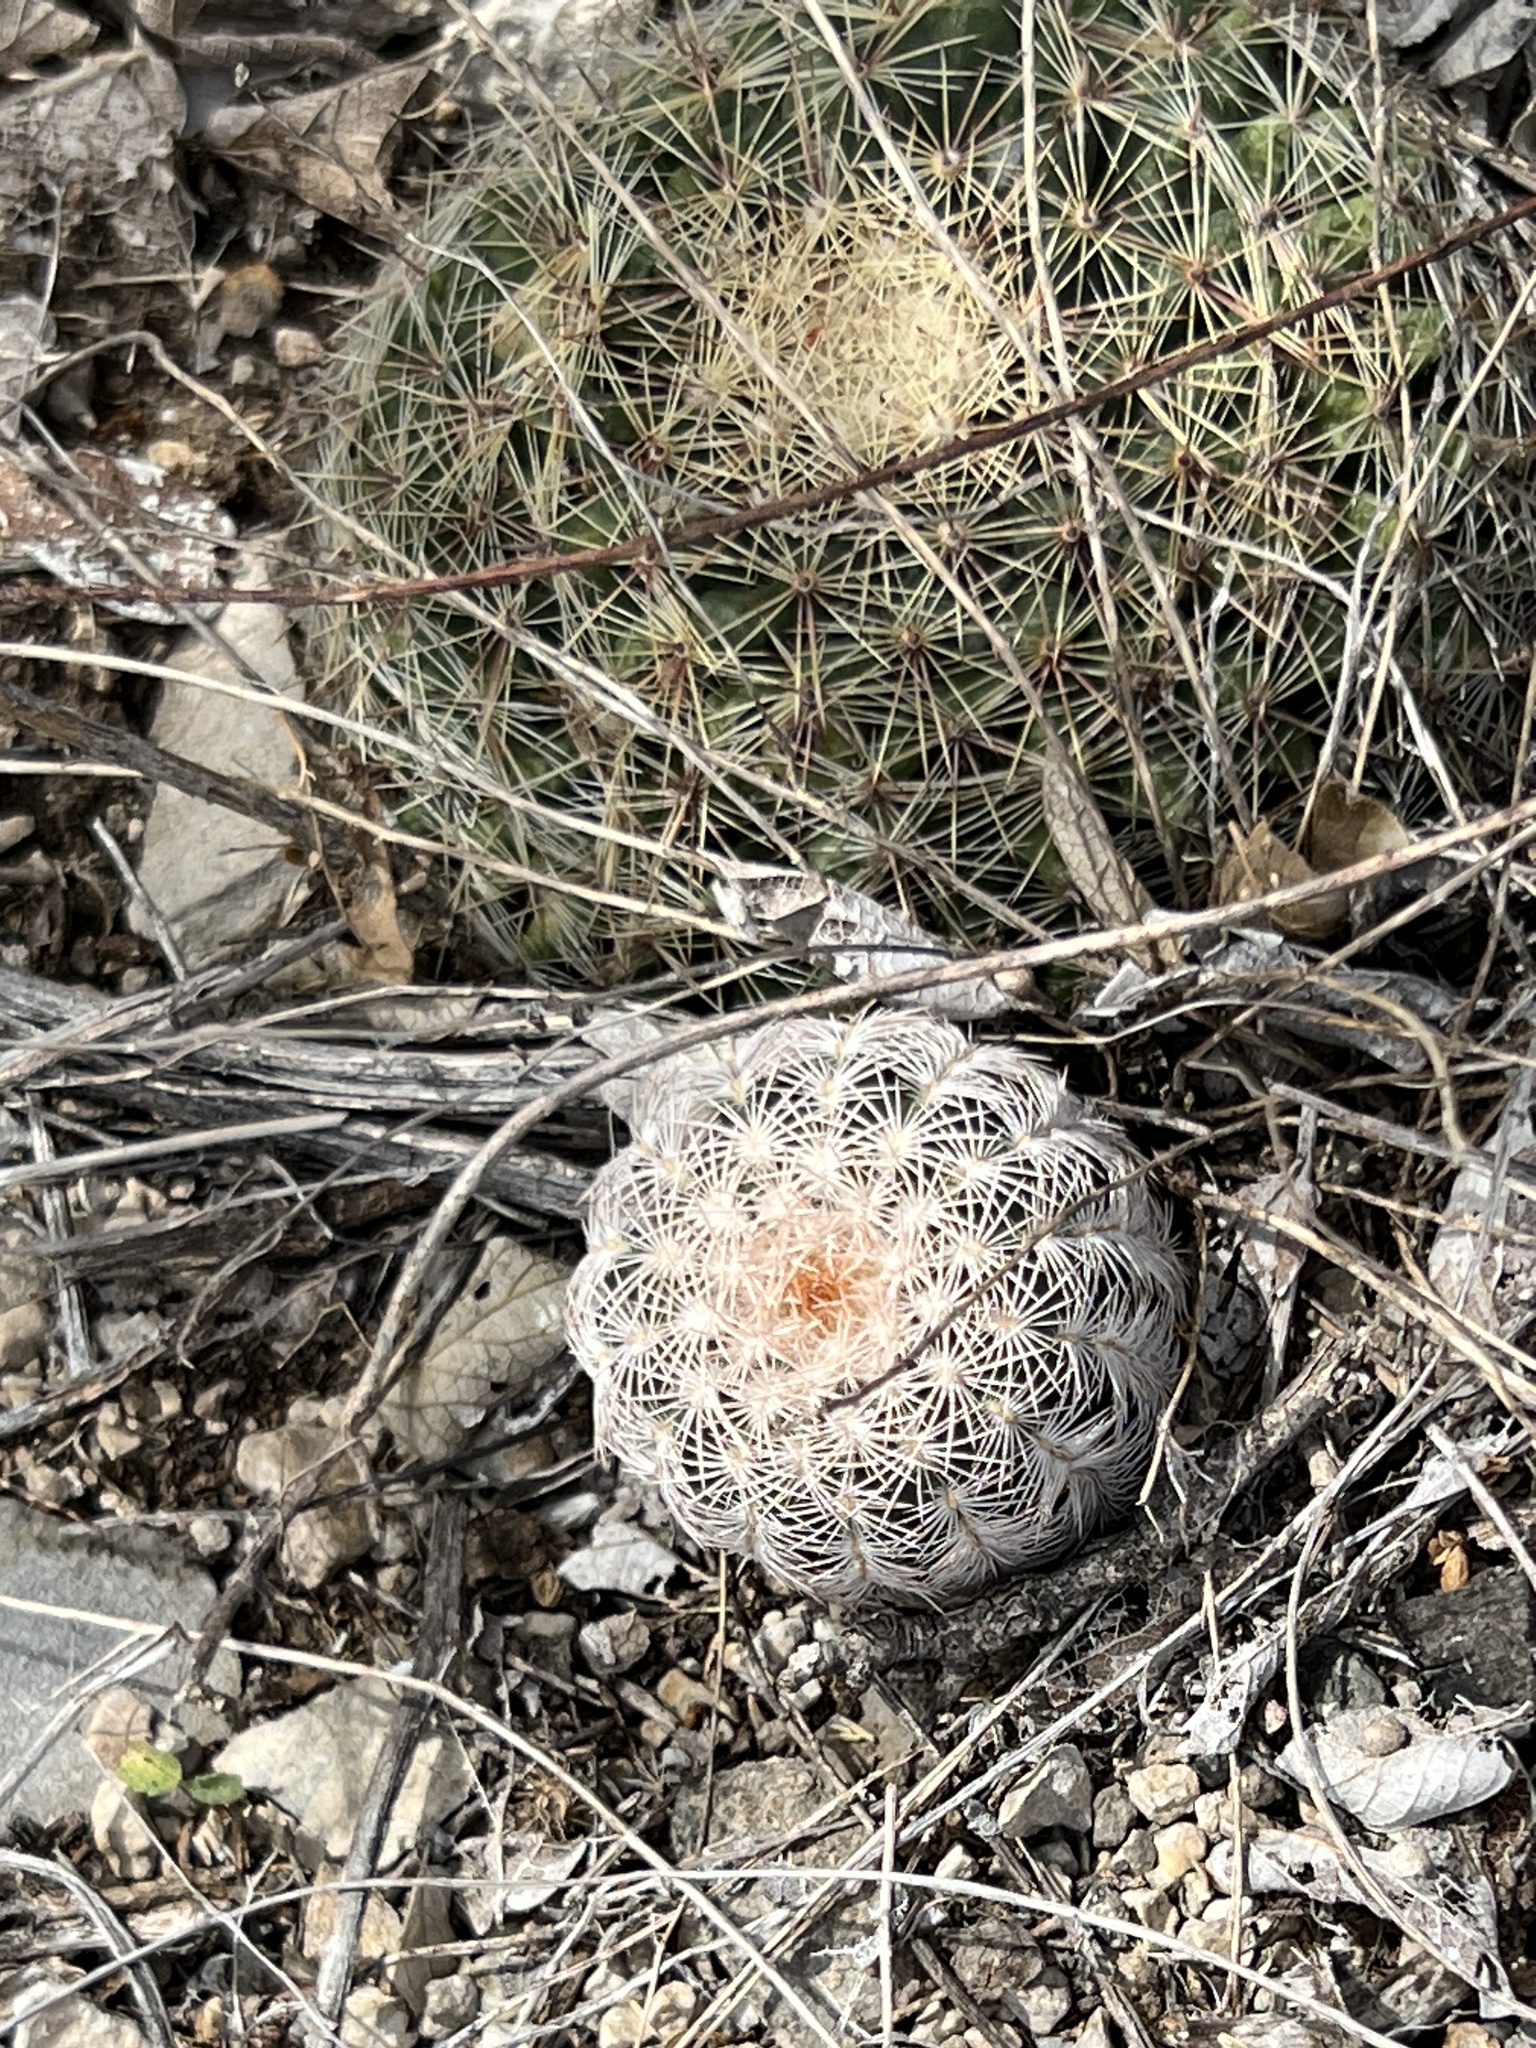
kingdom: Plantae
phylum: Tracheophyta
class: Magnoliopsida
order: Caryophyllales
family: Cactaceae
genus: Echinocereus
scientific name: Echinocereus reichenbachii
